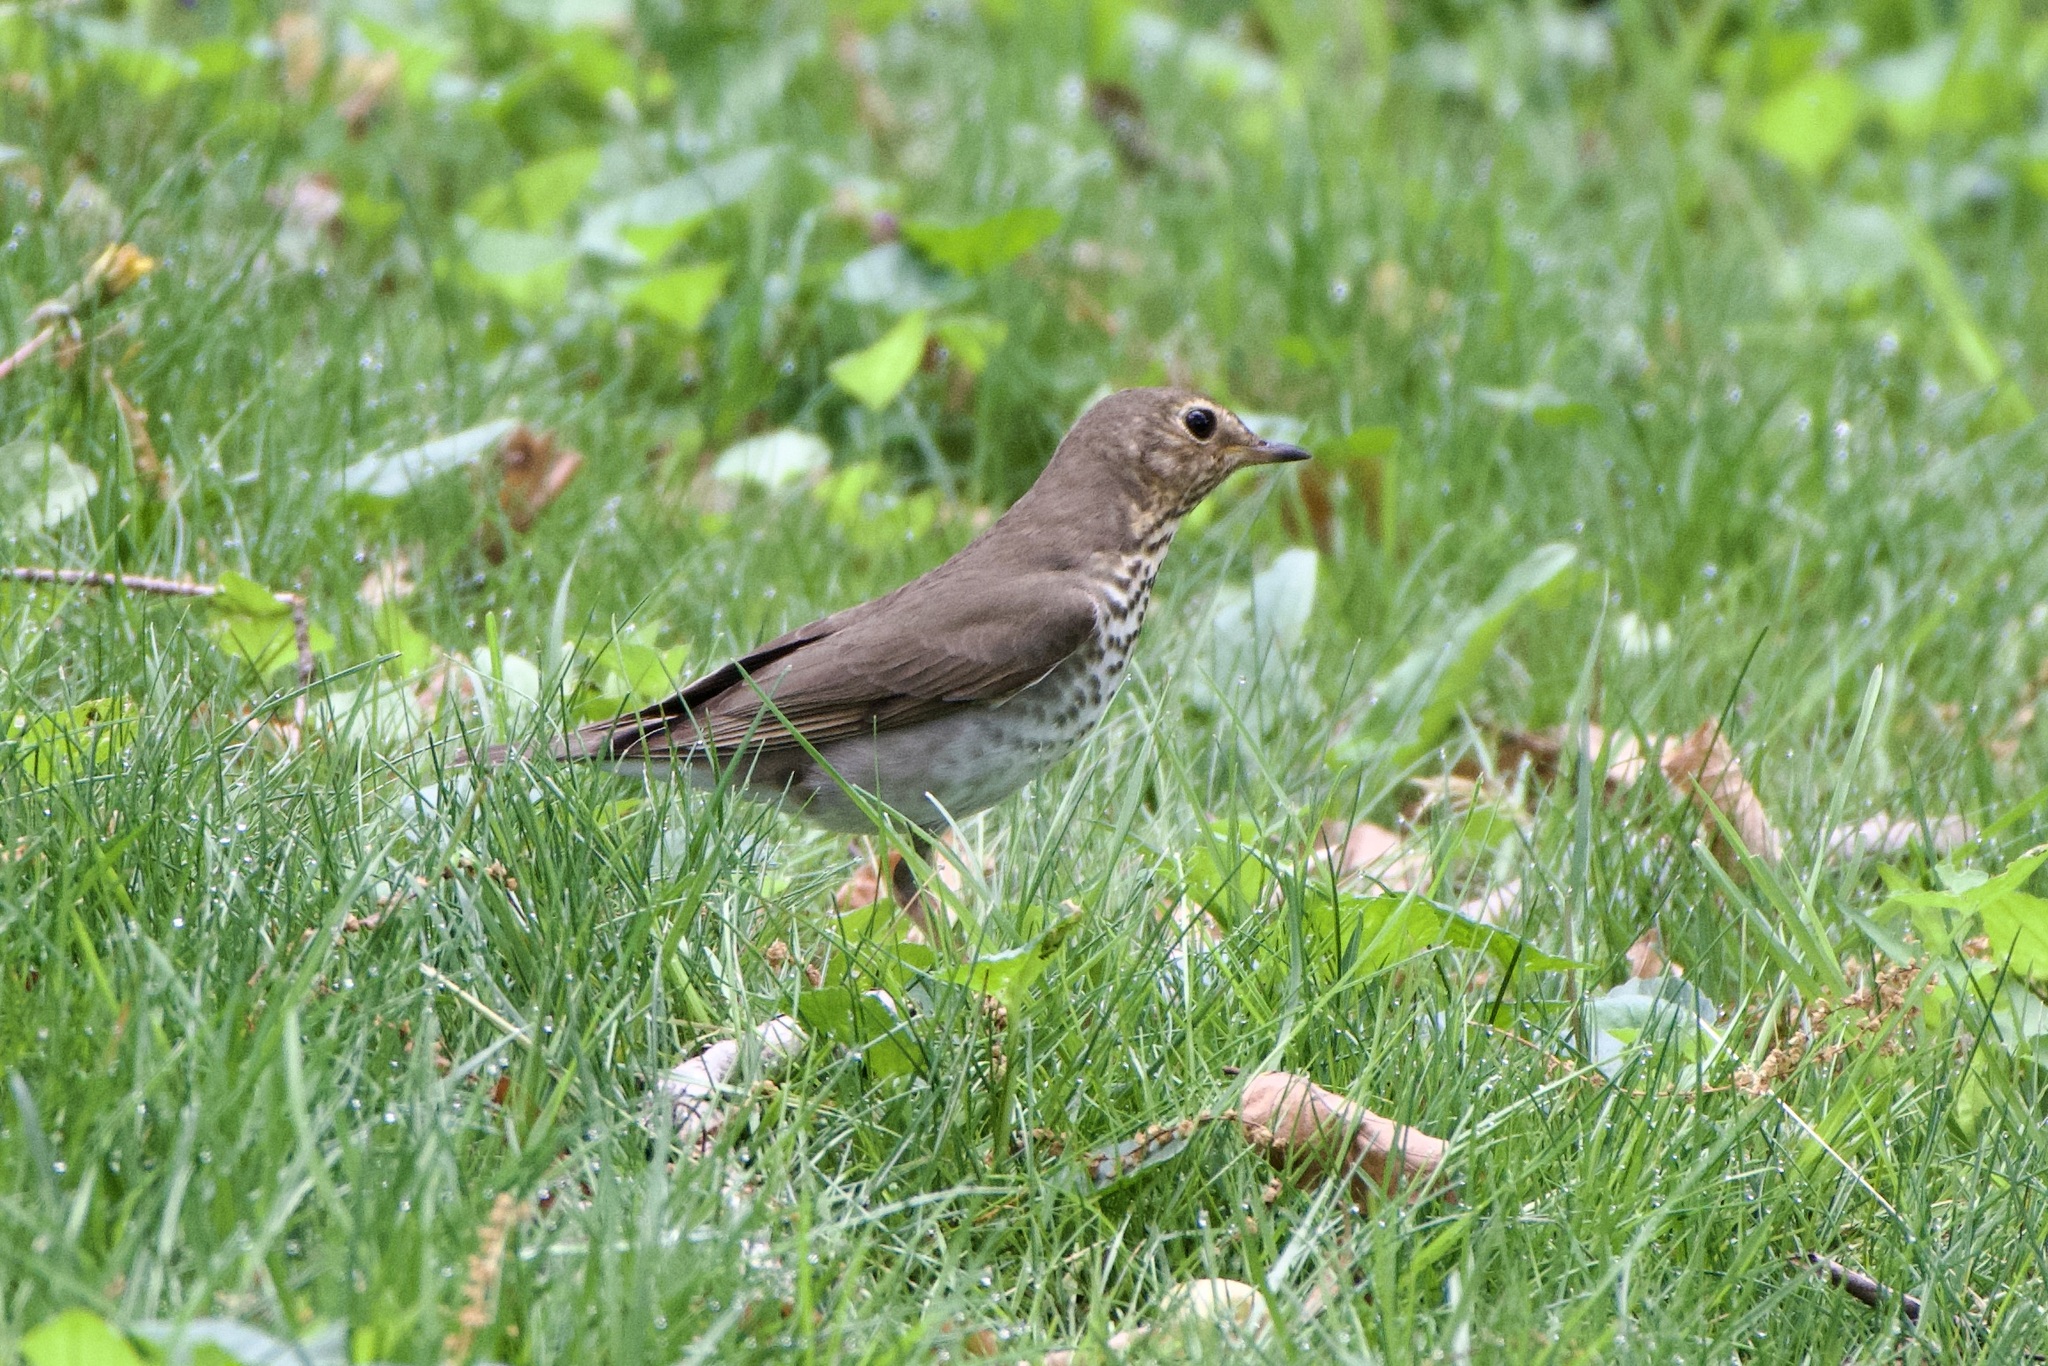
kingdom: Animalia
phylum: Chordata
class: Aves
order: Passeriformes
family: Turdidae
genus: Catharus
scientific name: Catharus ustulatus
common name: Swainson's thrush
